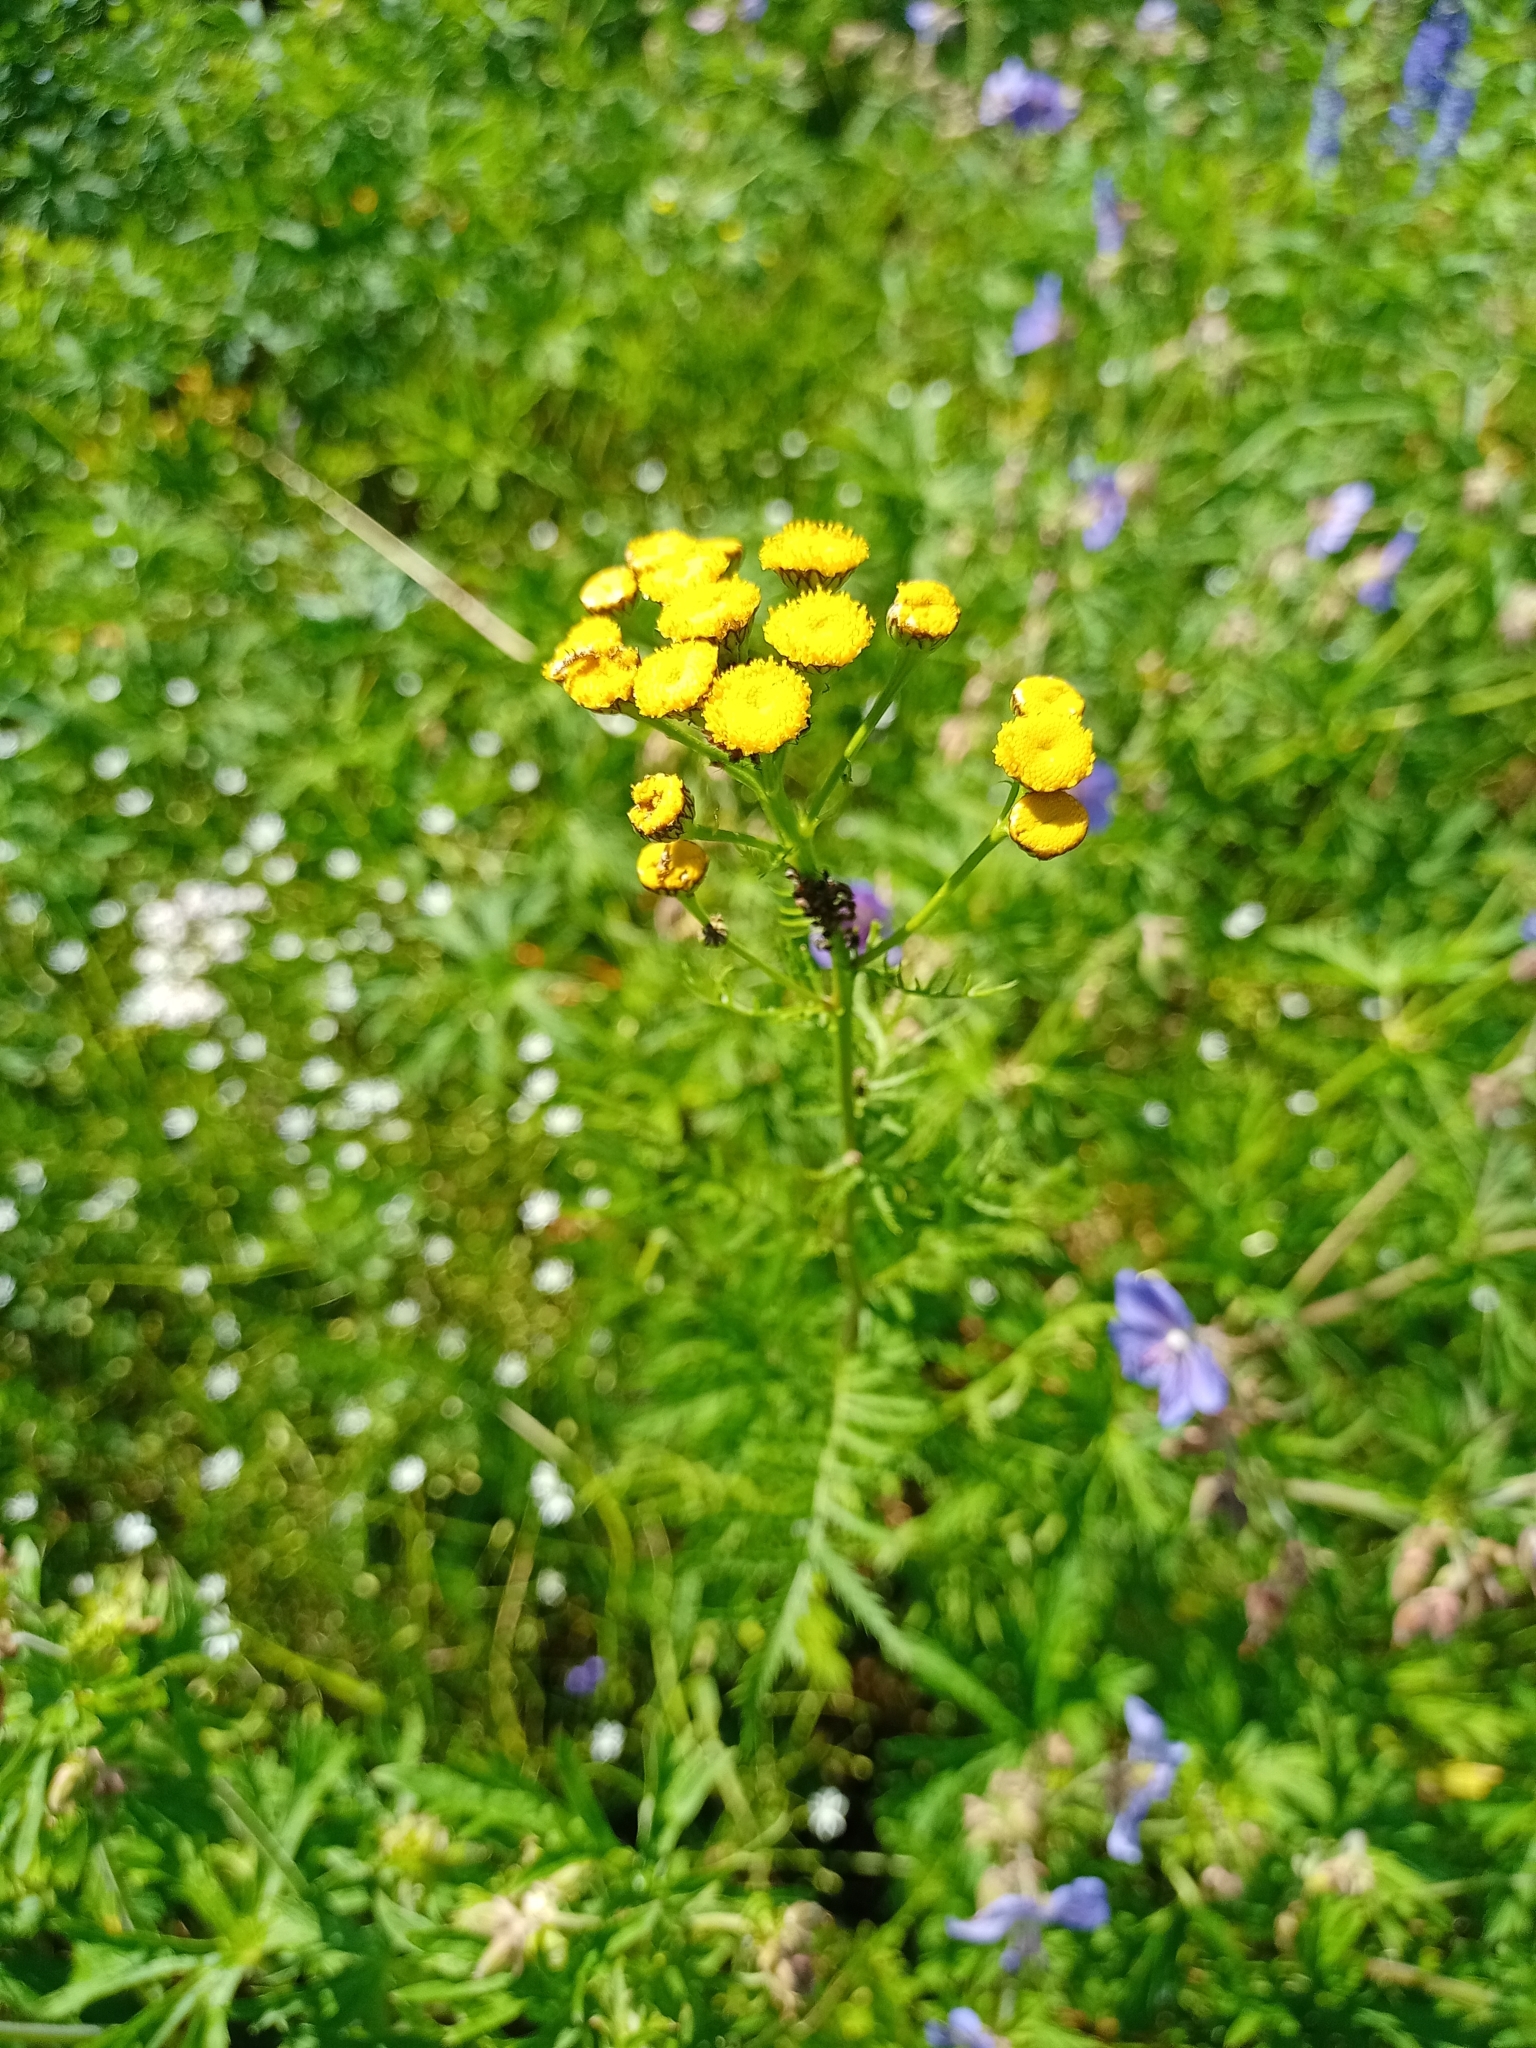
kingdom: Plantae
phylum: Tracheophyta
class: Magnoliopsida
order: Asterales
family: Asteraceae
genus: Tanacetum
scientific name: Tanacetum vulgare
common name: Common tansy
